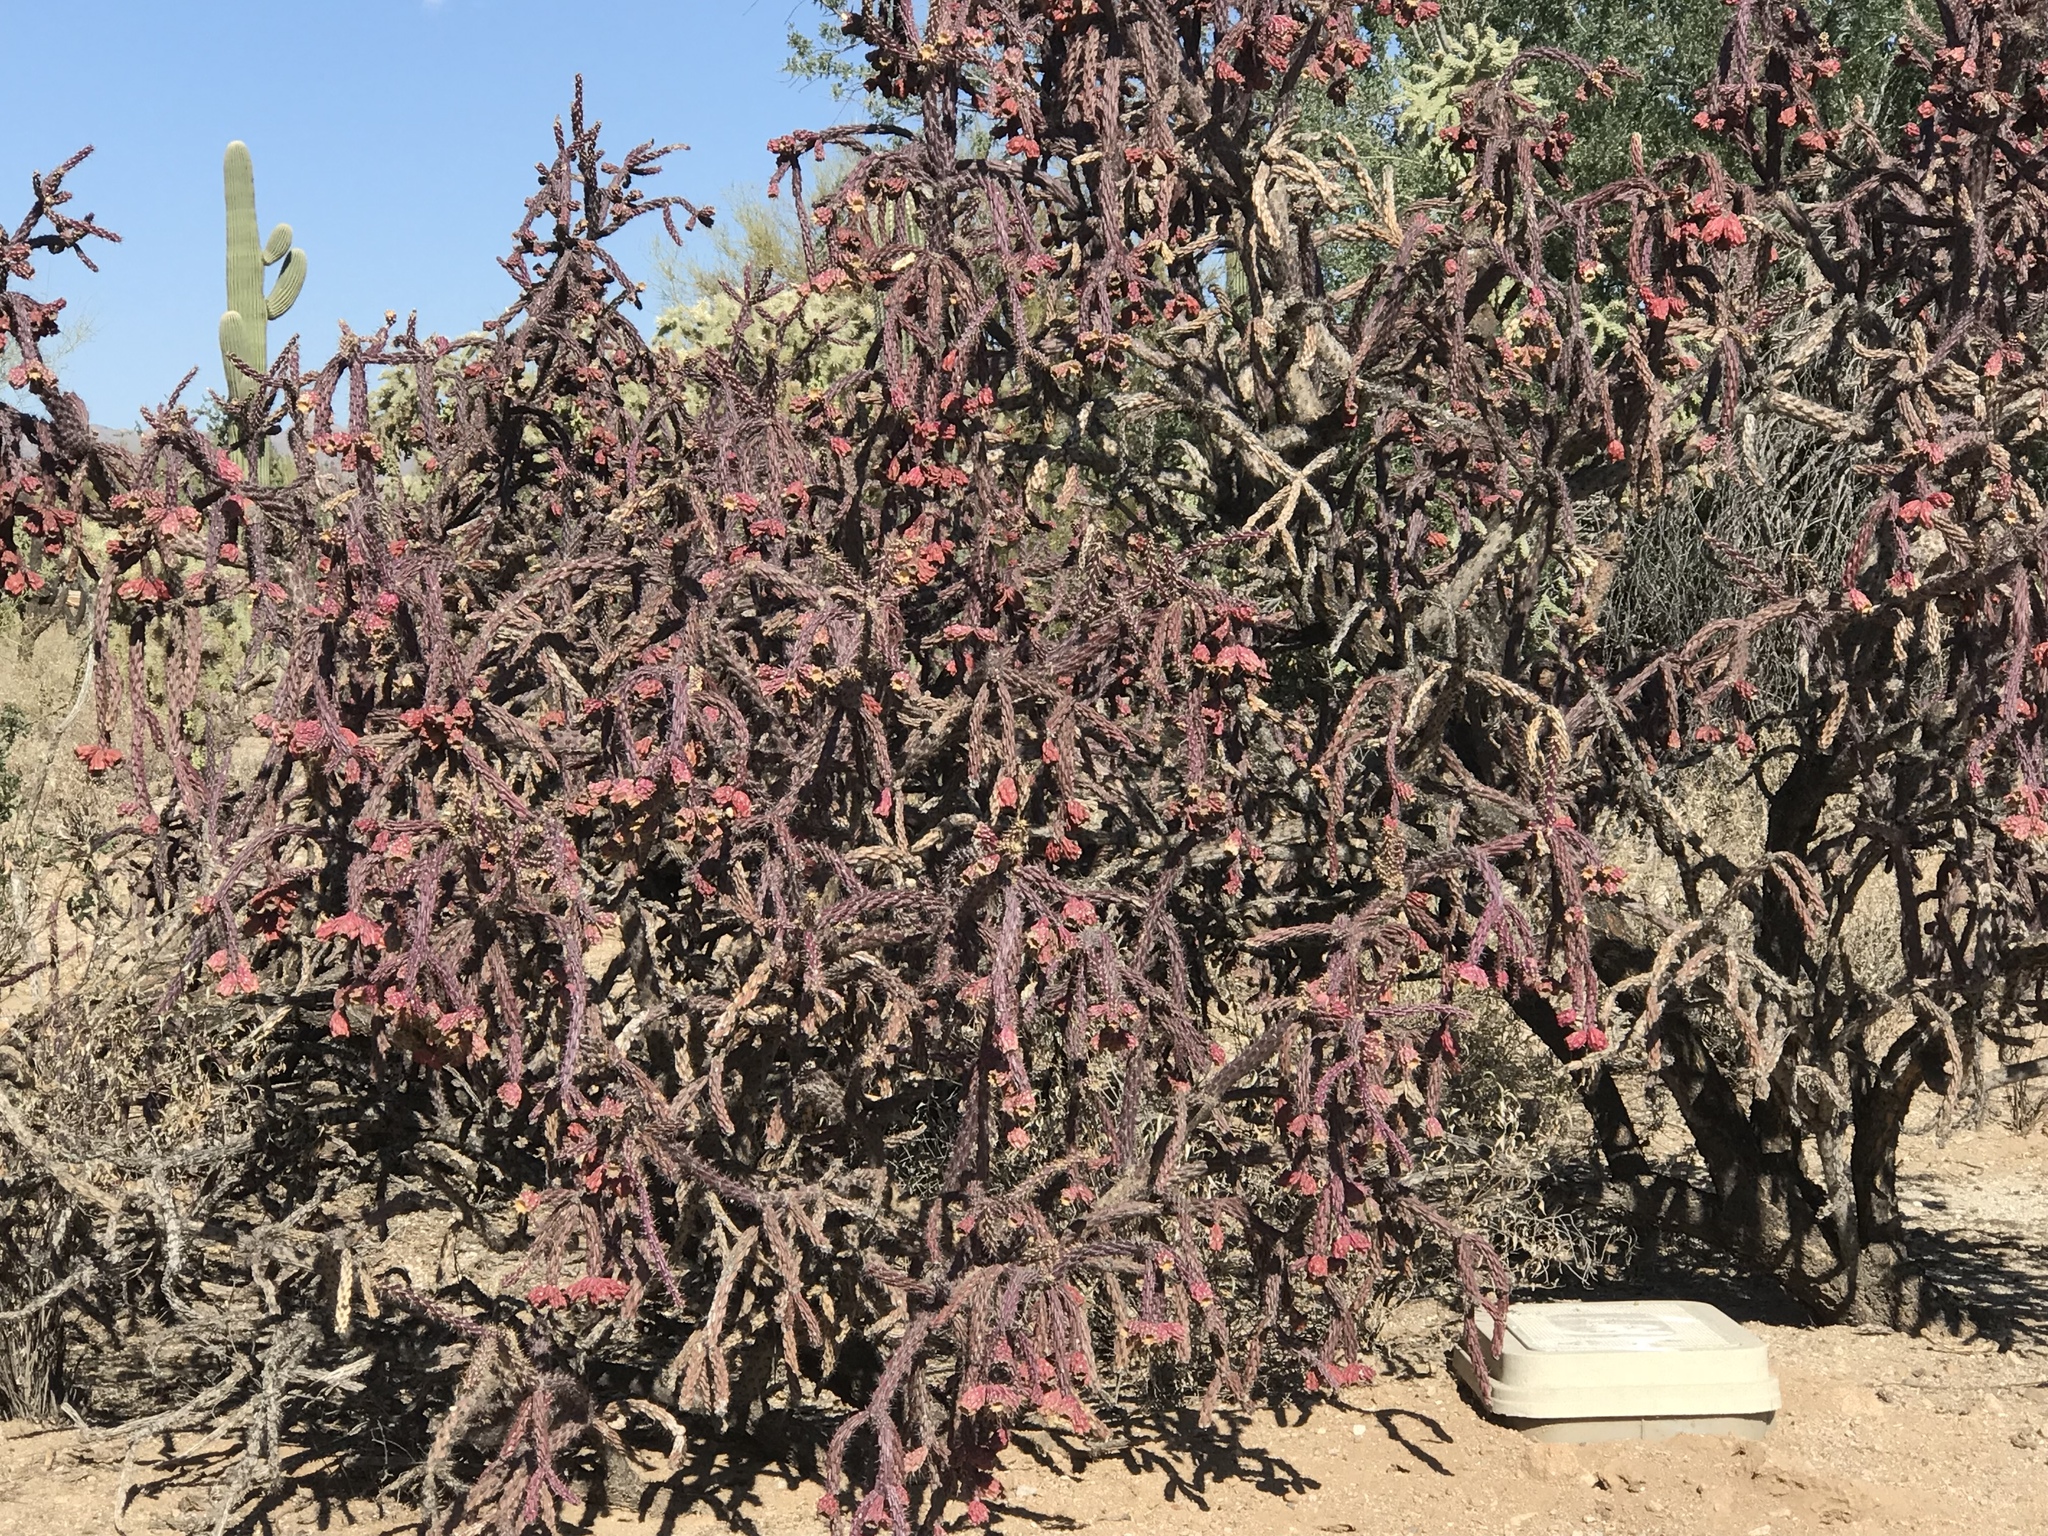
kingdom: Plantae
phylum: Tracheophyta
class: Magnoliopsida
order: Caryophyllales
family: Cactaceae
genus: Cylindropuntia
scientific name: Cylindropuntia thurberi
